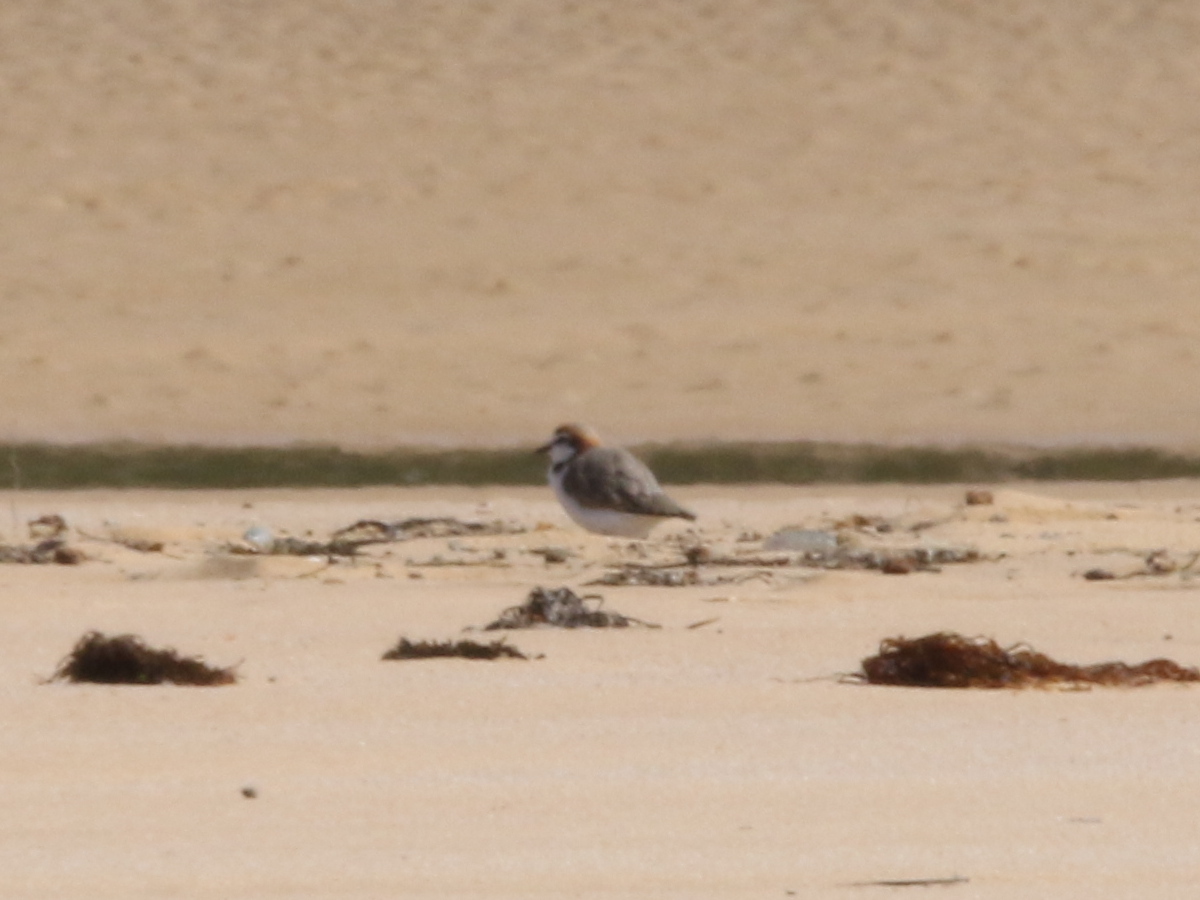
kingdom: Animalia
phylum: Chordata
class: Aves
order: Charadriiformes
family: Charadriidae
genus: Anarhynchus
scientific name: Anarhynchus
